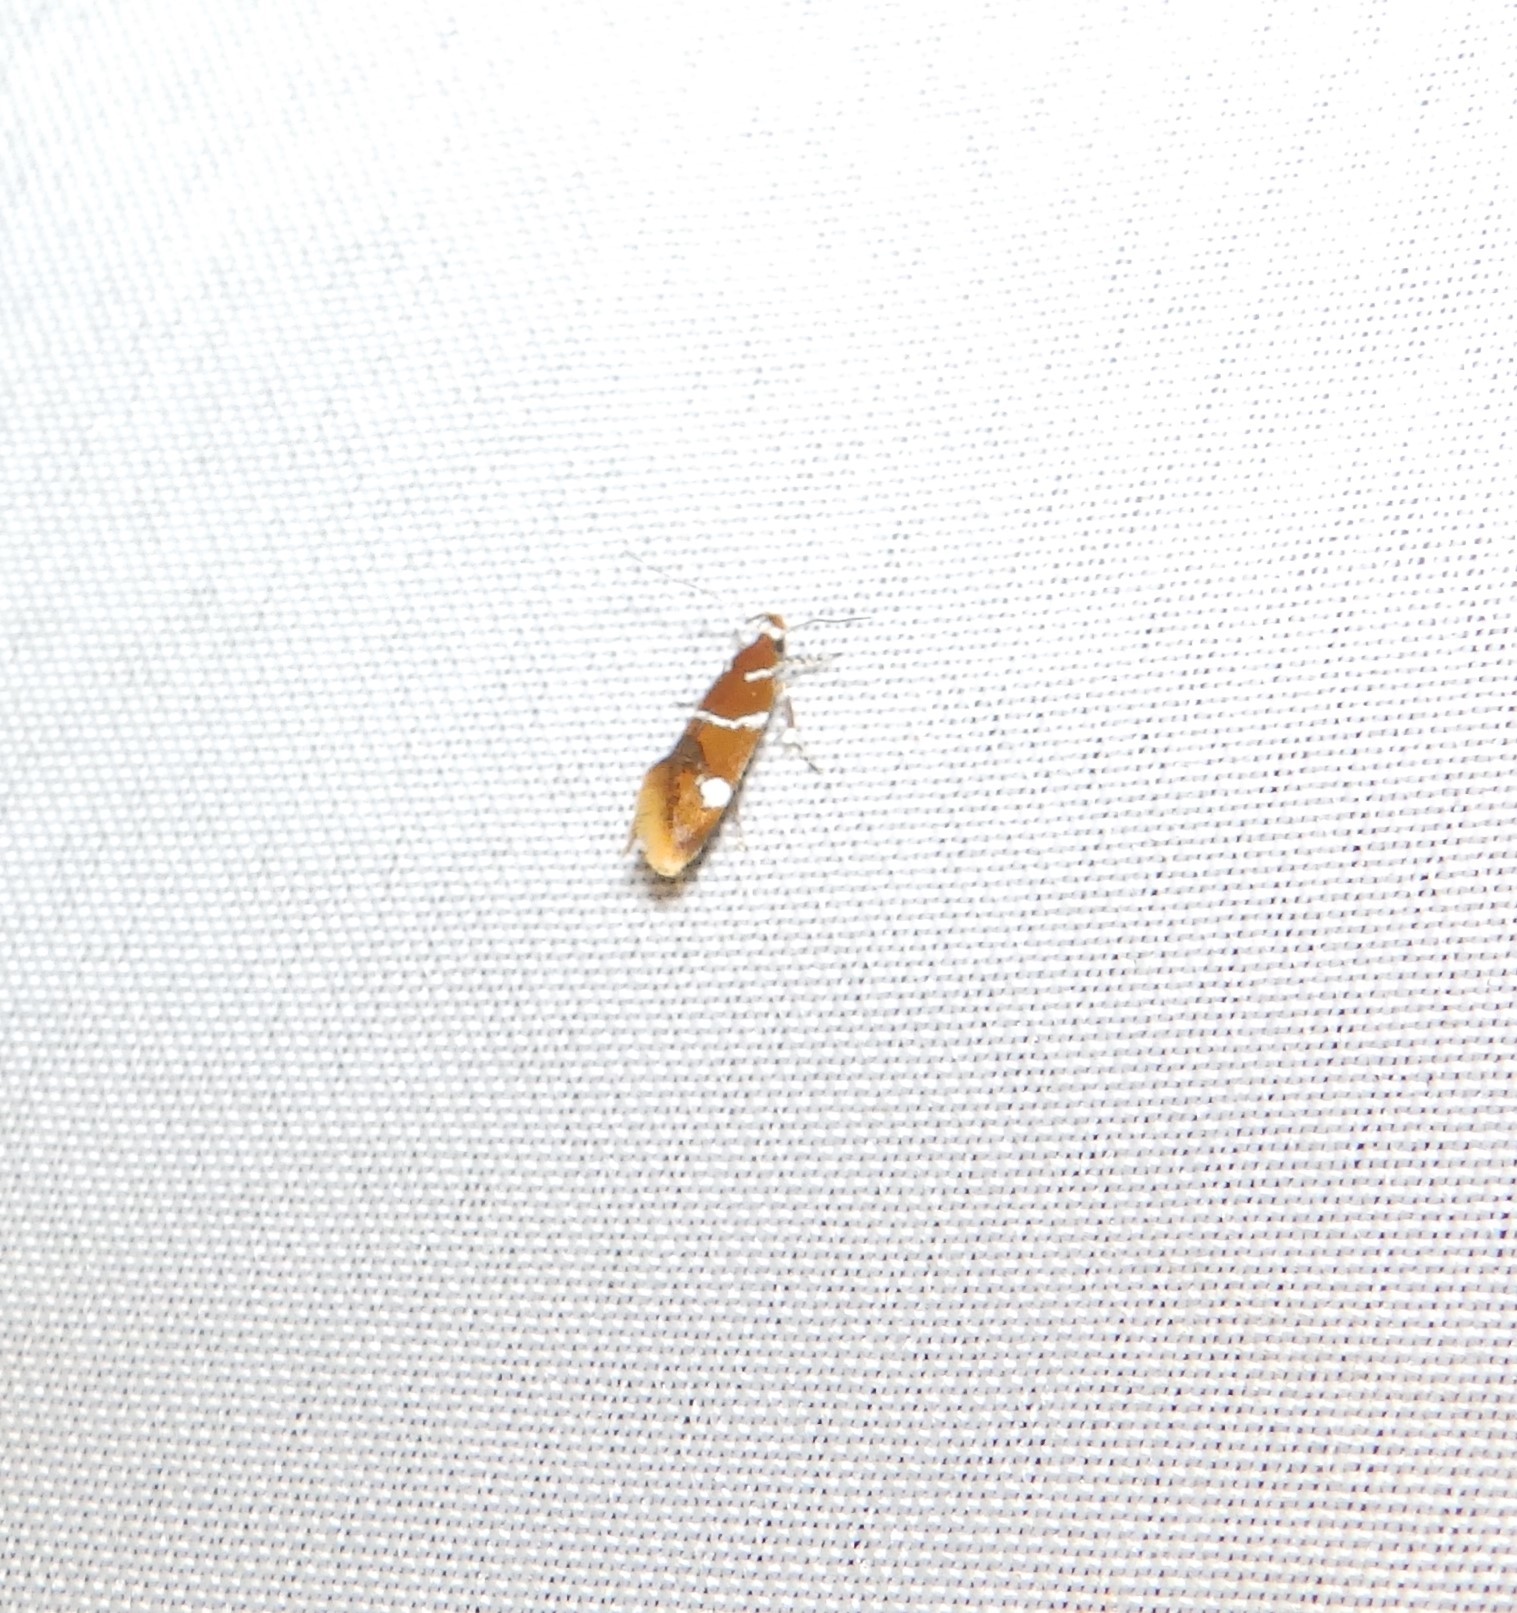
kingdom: Animalia
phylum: Arthropoda
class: Insecta
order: Lepidoptera
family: Oecophoridae
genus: Promalactis
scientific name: Promalactis suzukiella
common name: Moth
